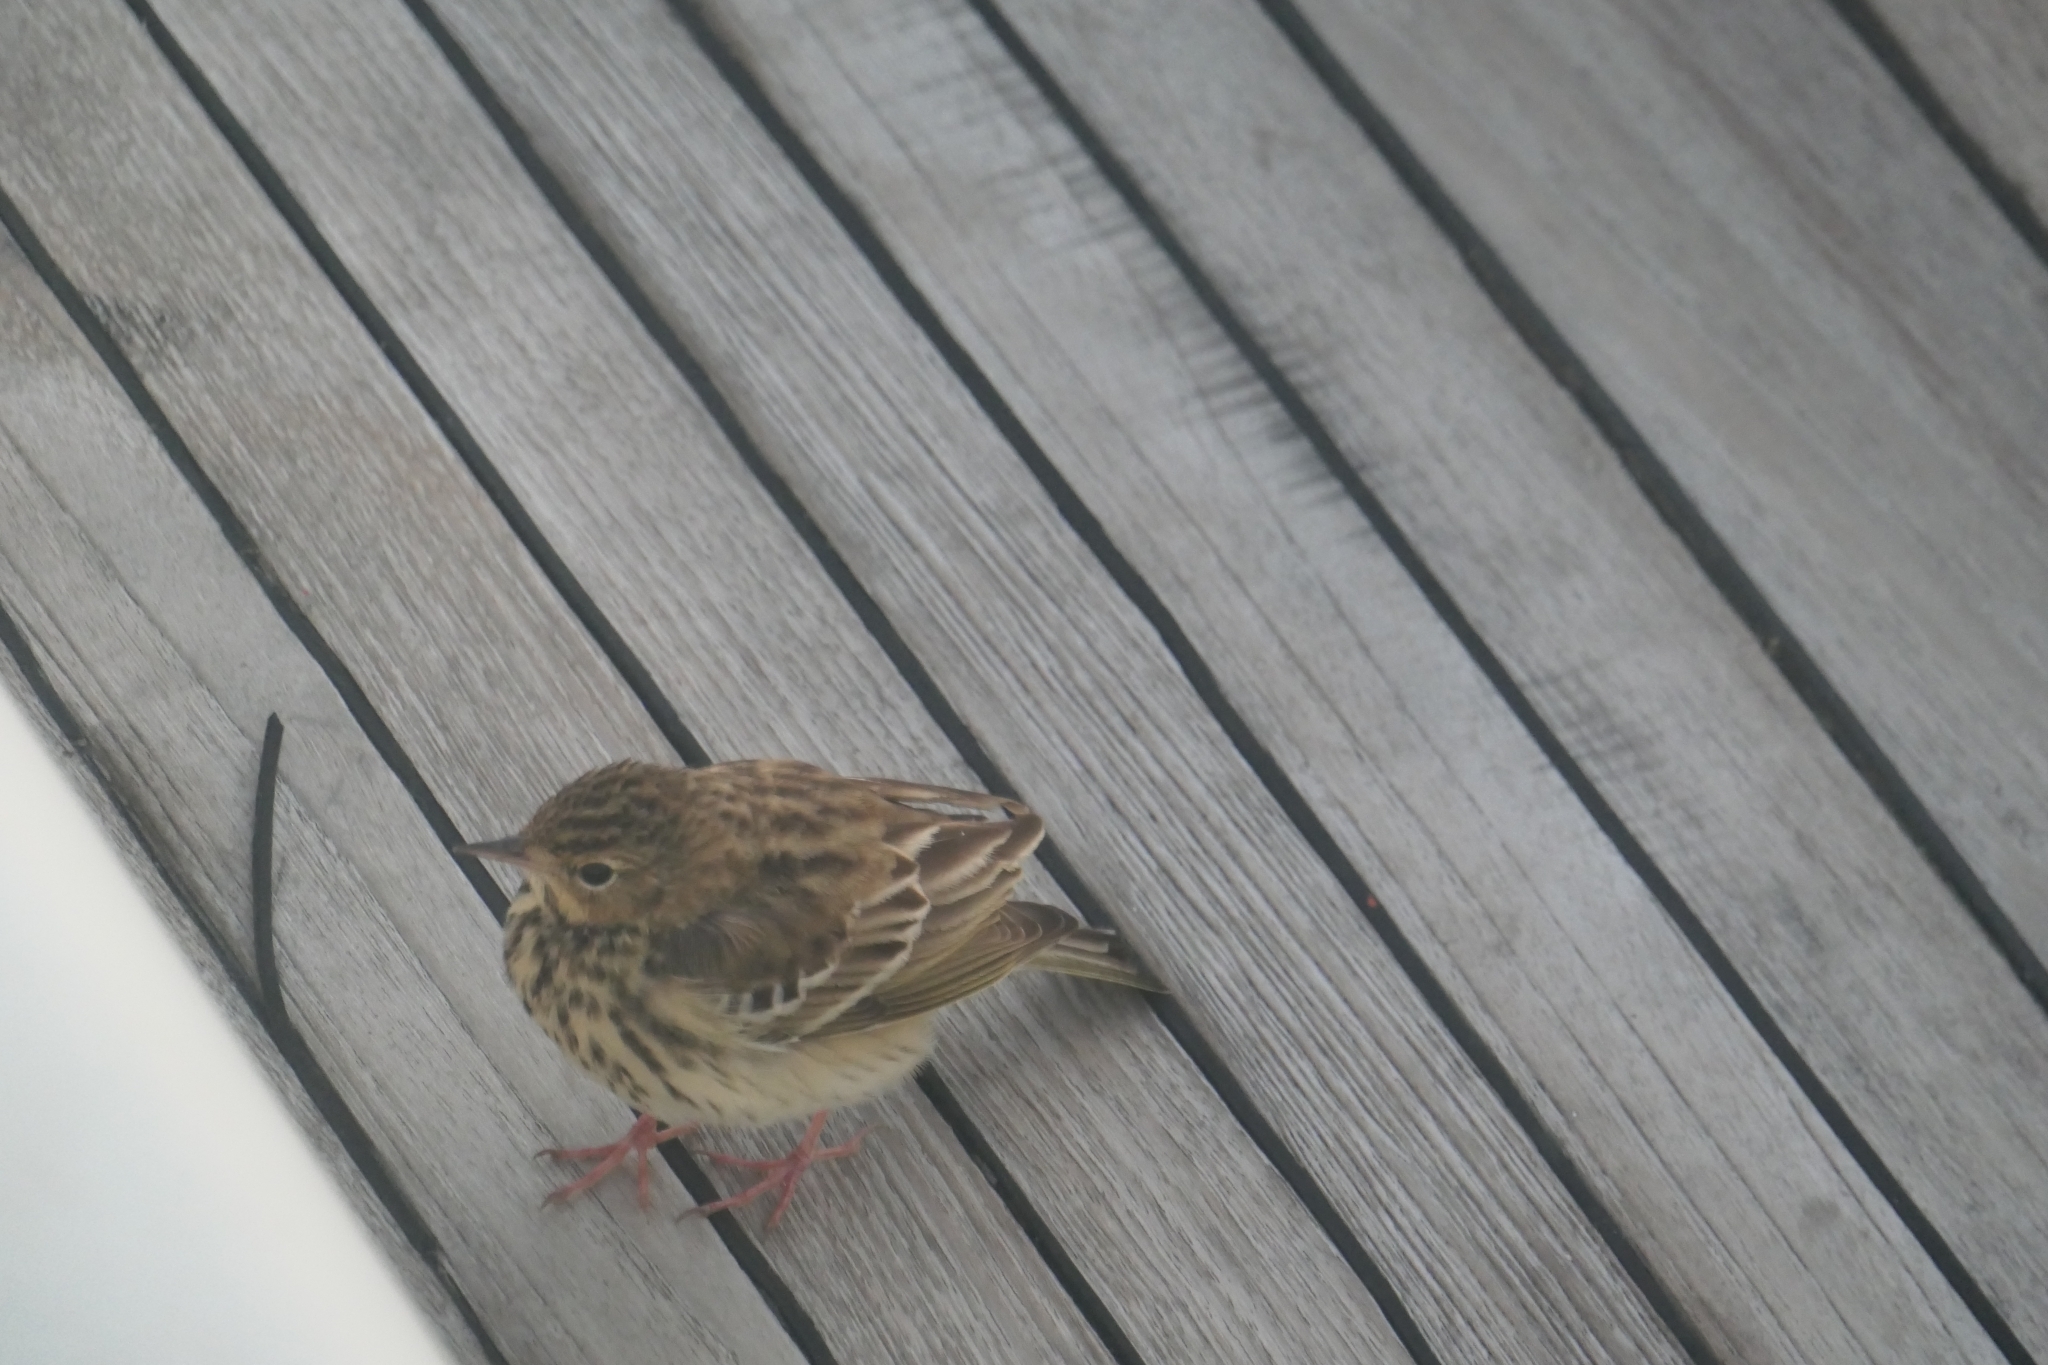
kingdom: Animalia
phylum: Chordata
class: Aves
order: Passeriformes
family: Motacillidae
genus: Anthus
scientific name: Anthus trivialis
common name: Tree pipit
